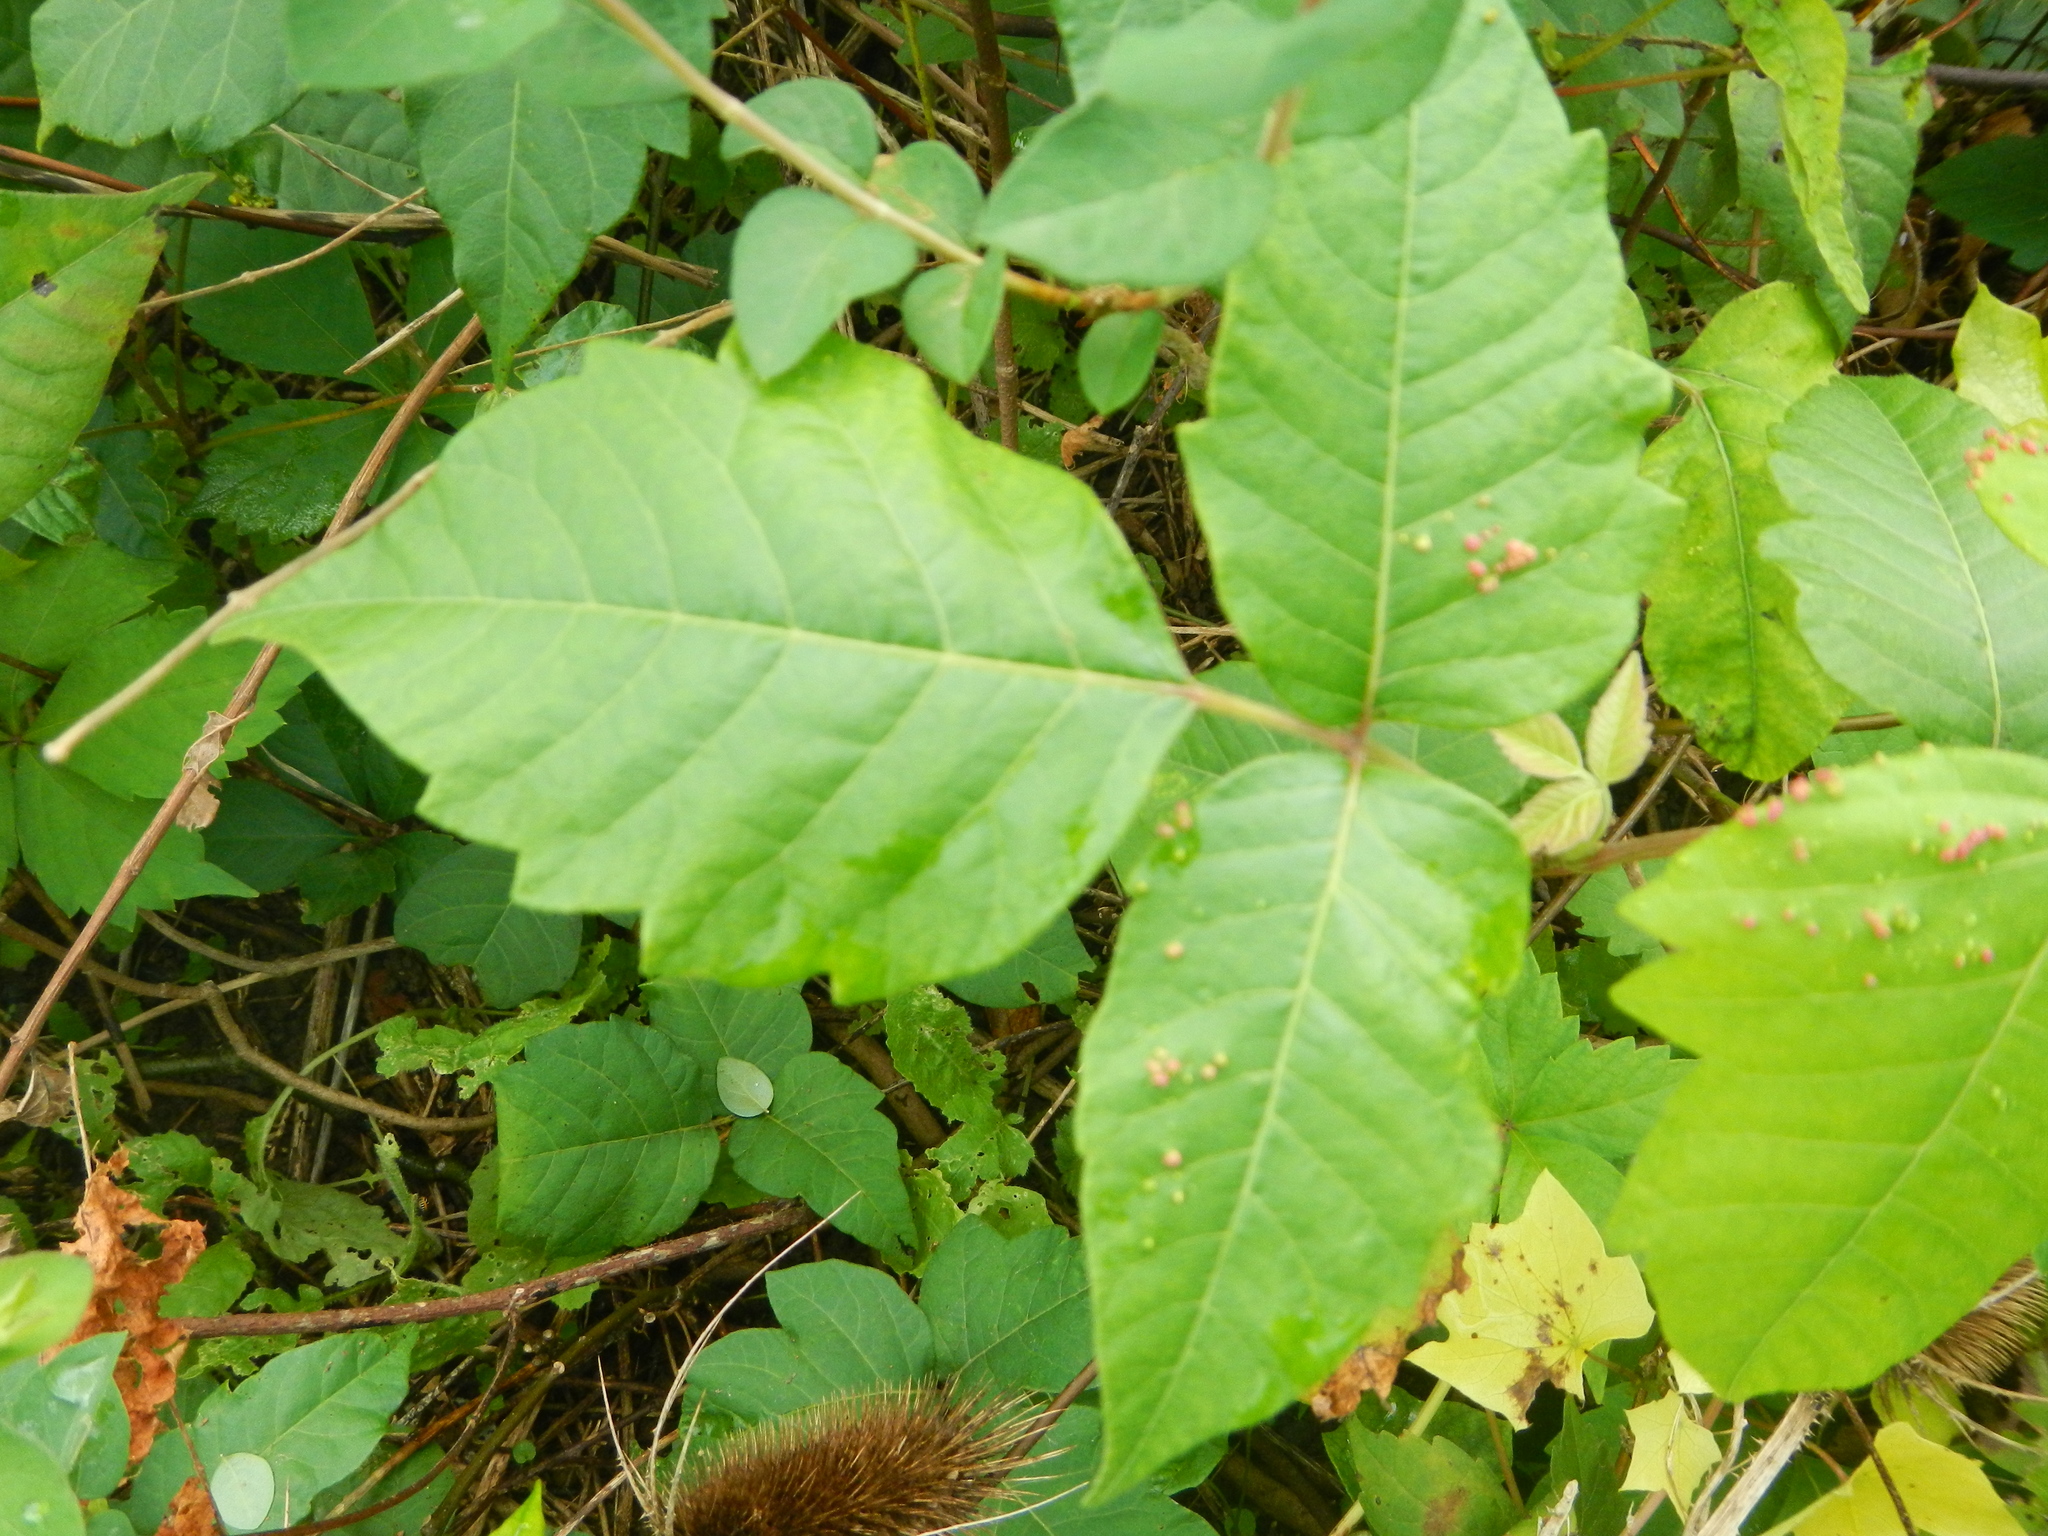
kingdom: Plantae
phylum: Tracheophyta
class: Magnoliopsida
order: Sapindales
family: Anacardiaceae
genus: Toxicodendron
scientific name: Toxicodendron radicans
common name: Poison ivy
